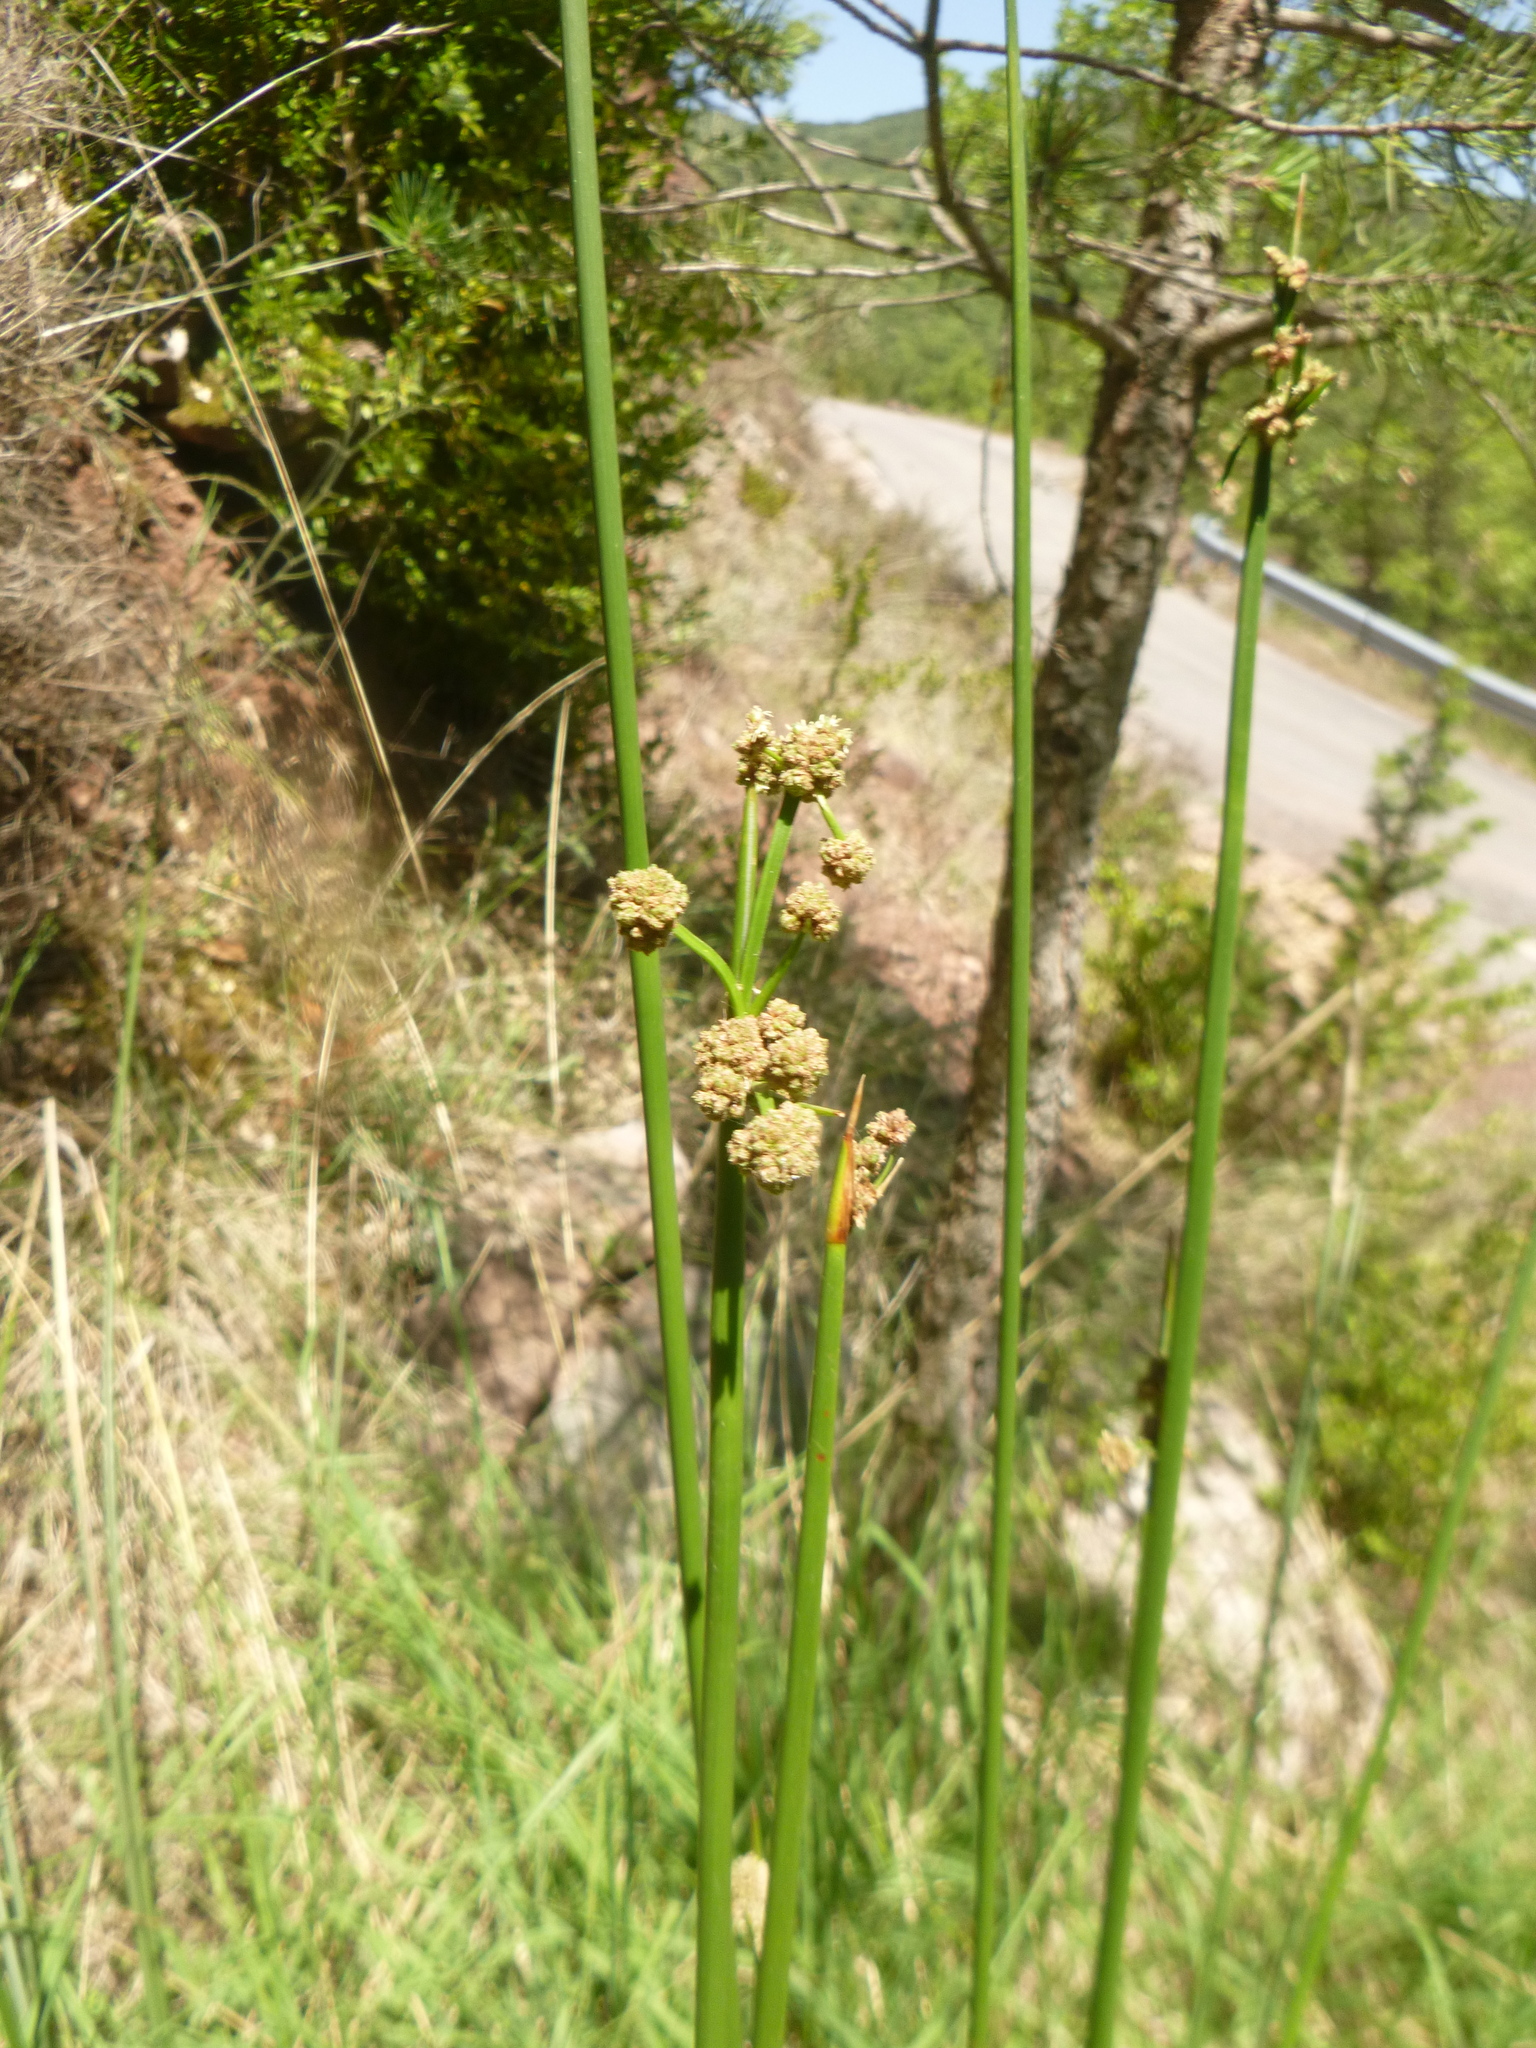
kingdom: Plantae
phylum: Tracheophyta
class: Liliopsida
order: Poales
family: Cyperaceae
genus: Scirpoides
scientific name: Scirpoides holoschoenus
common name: Round-headed club-rush
